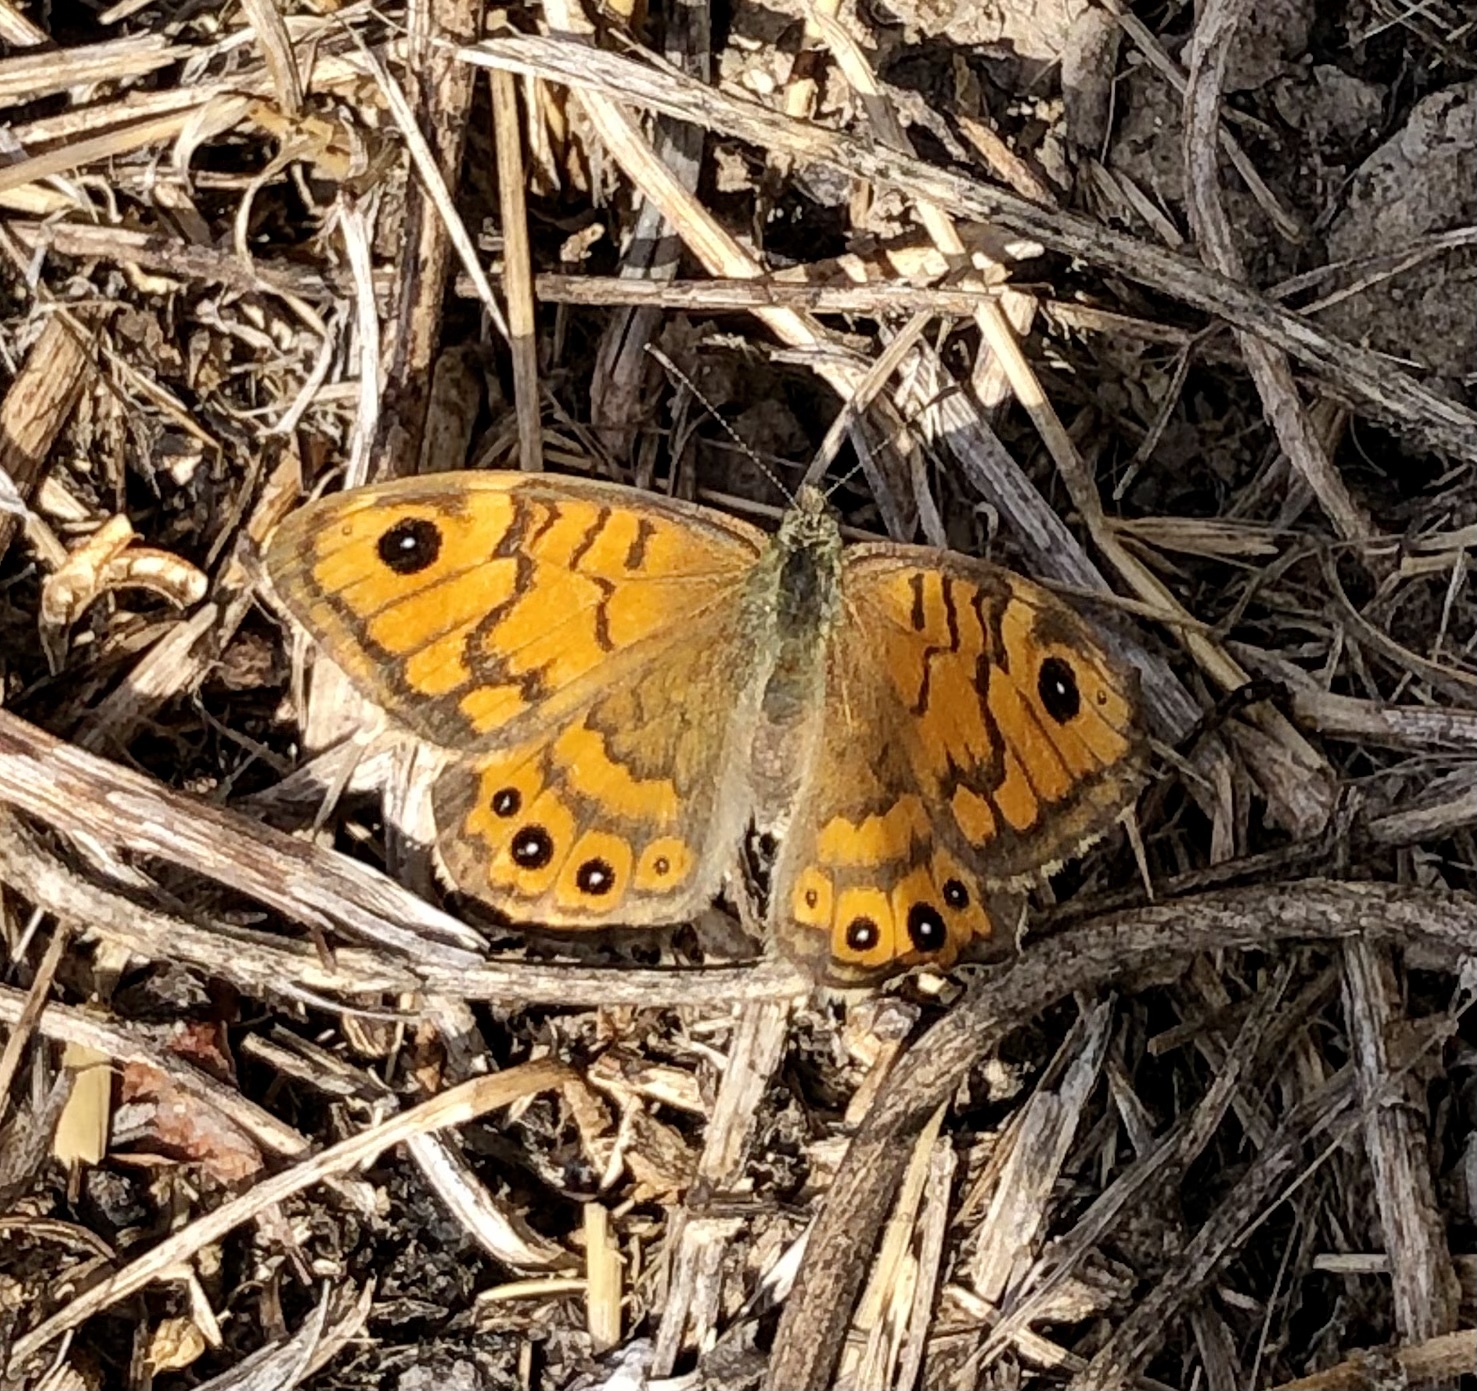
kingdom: Animalia
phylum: Arthropoda
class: Insecta
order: Lepidoptera
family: Nymphalidae
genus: Pararge
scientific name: Pararge Lasiommata megera
